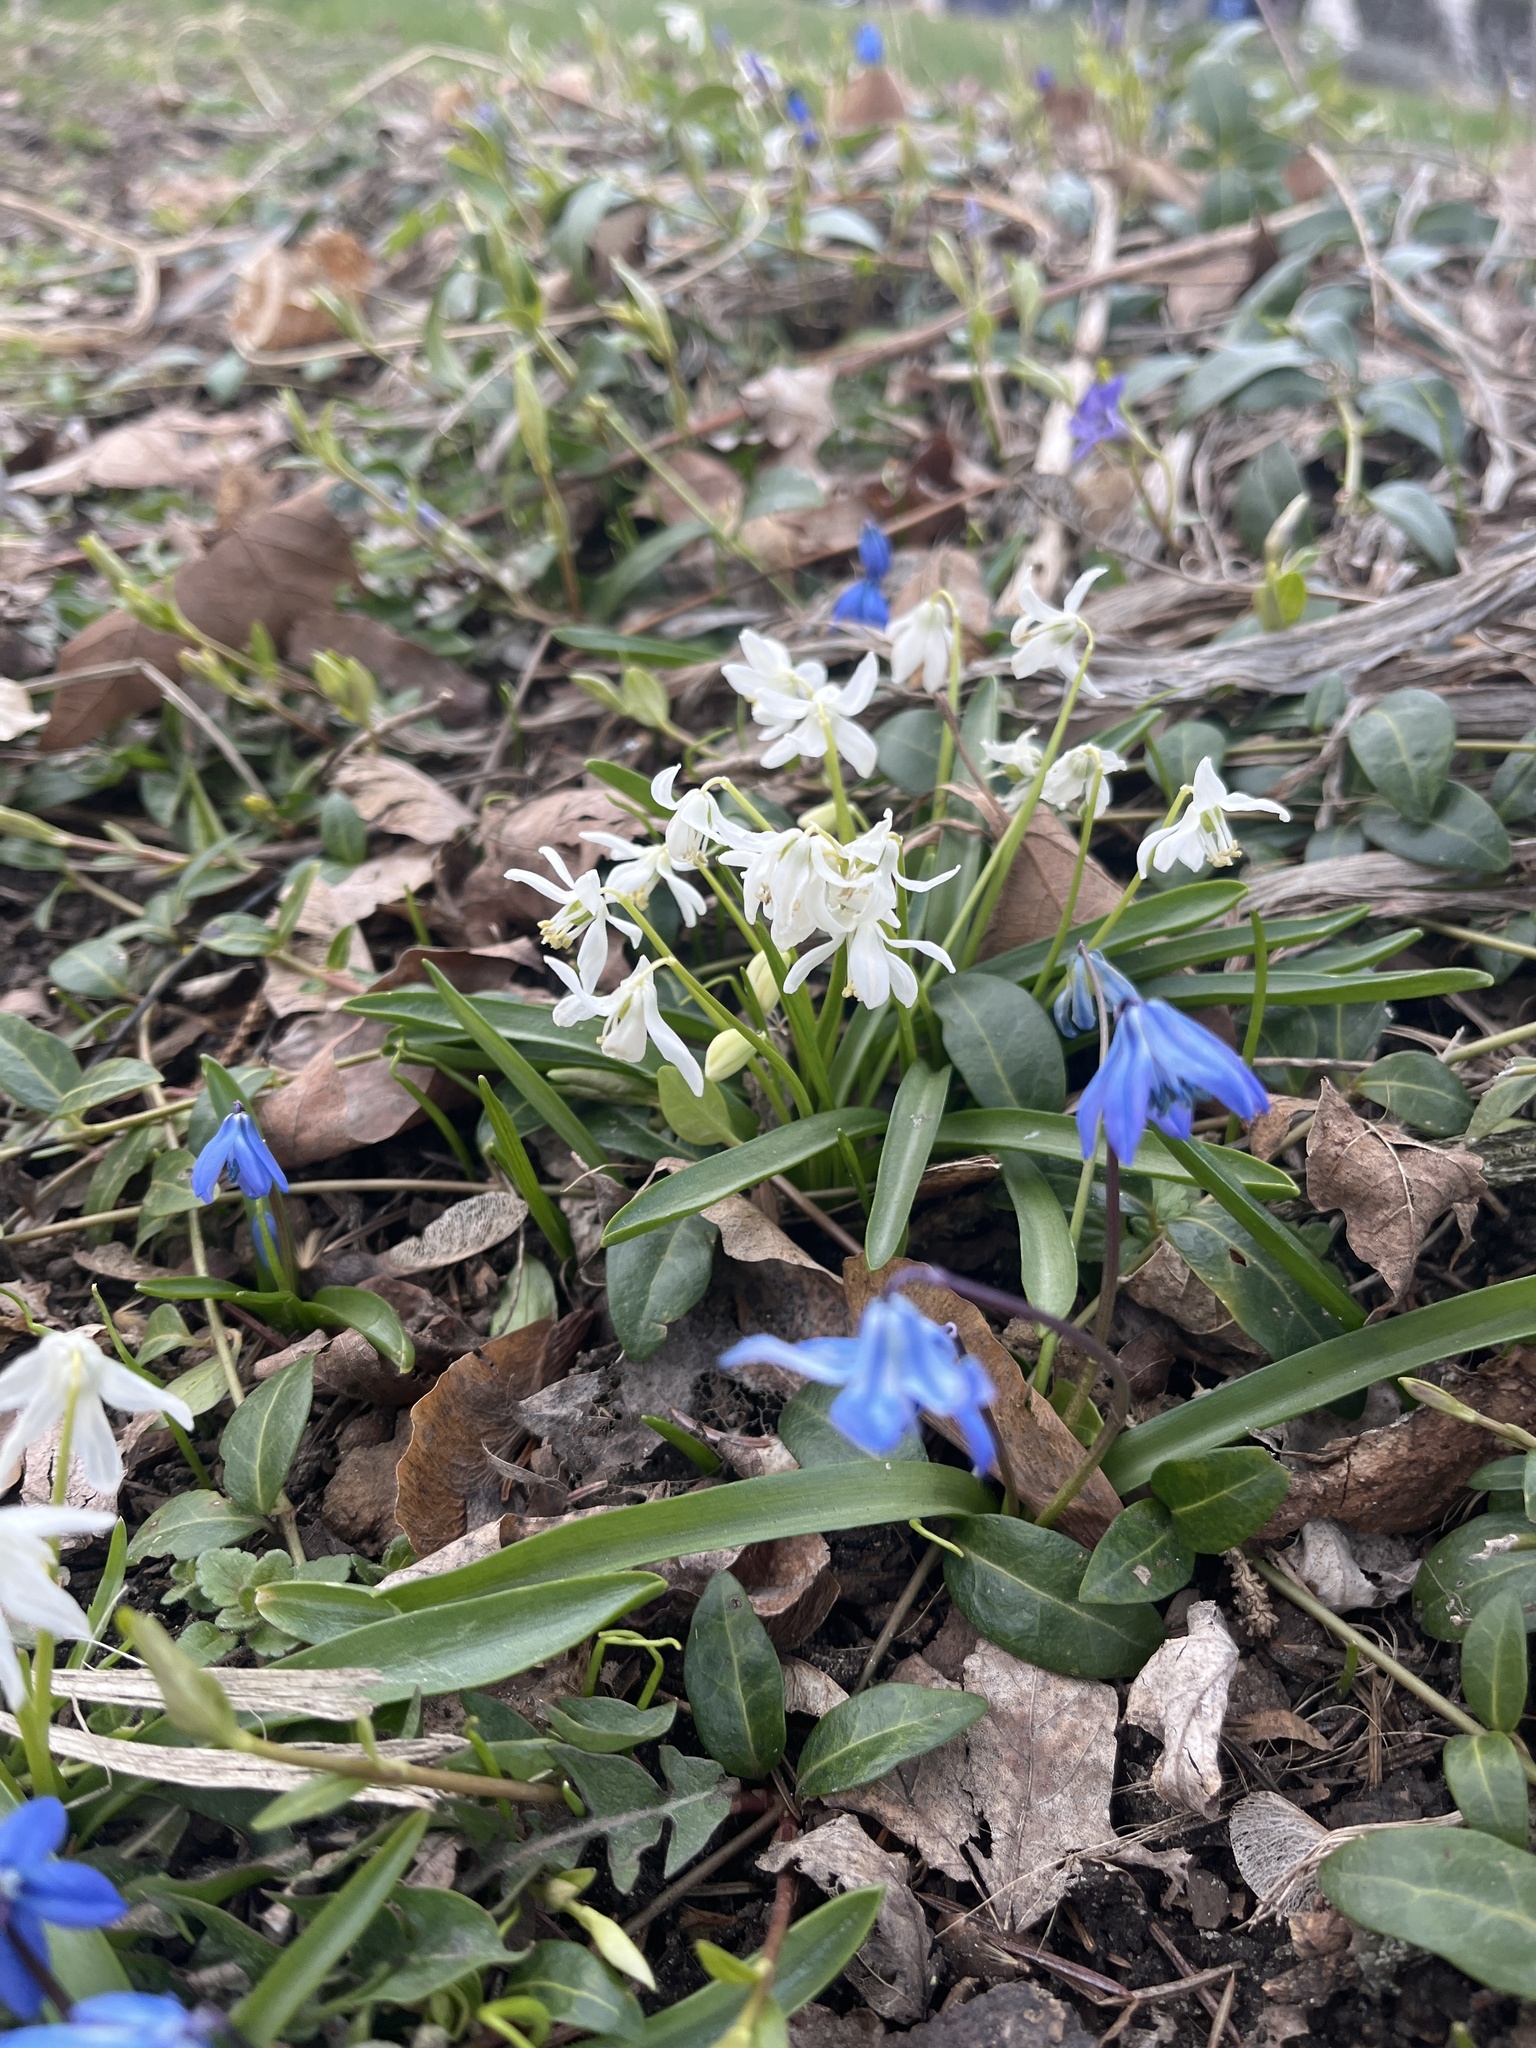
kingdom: Plantae
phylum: Tracheophyta
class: Liliopsida
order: Asparagales
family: Asparagaceae
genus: Scilla
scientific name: Scilla siberica
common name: Siberian squill
